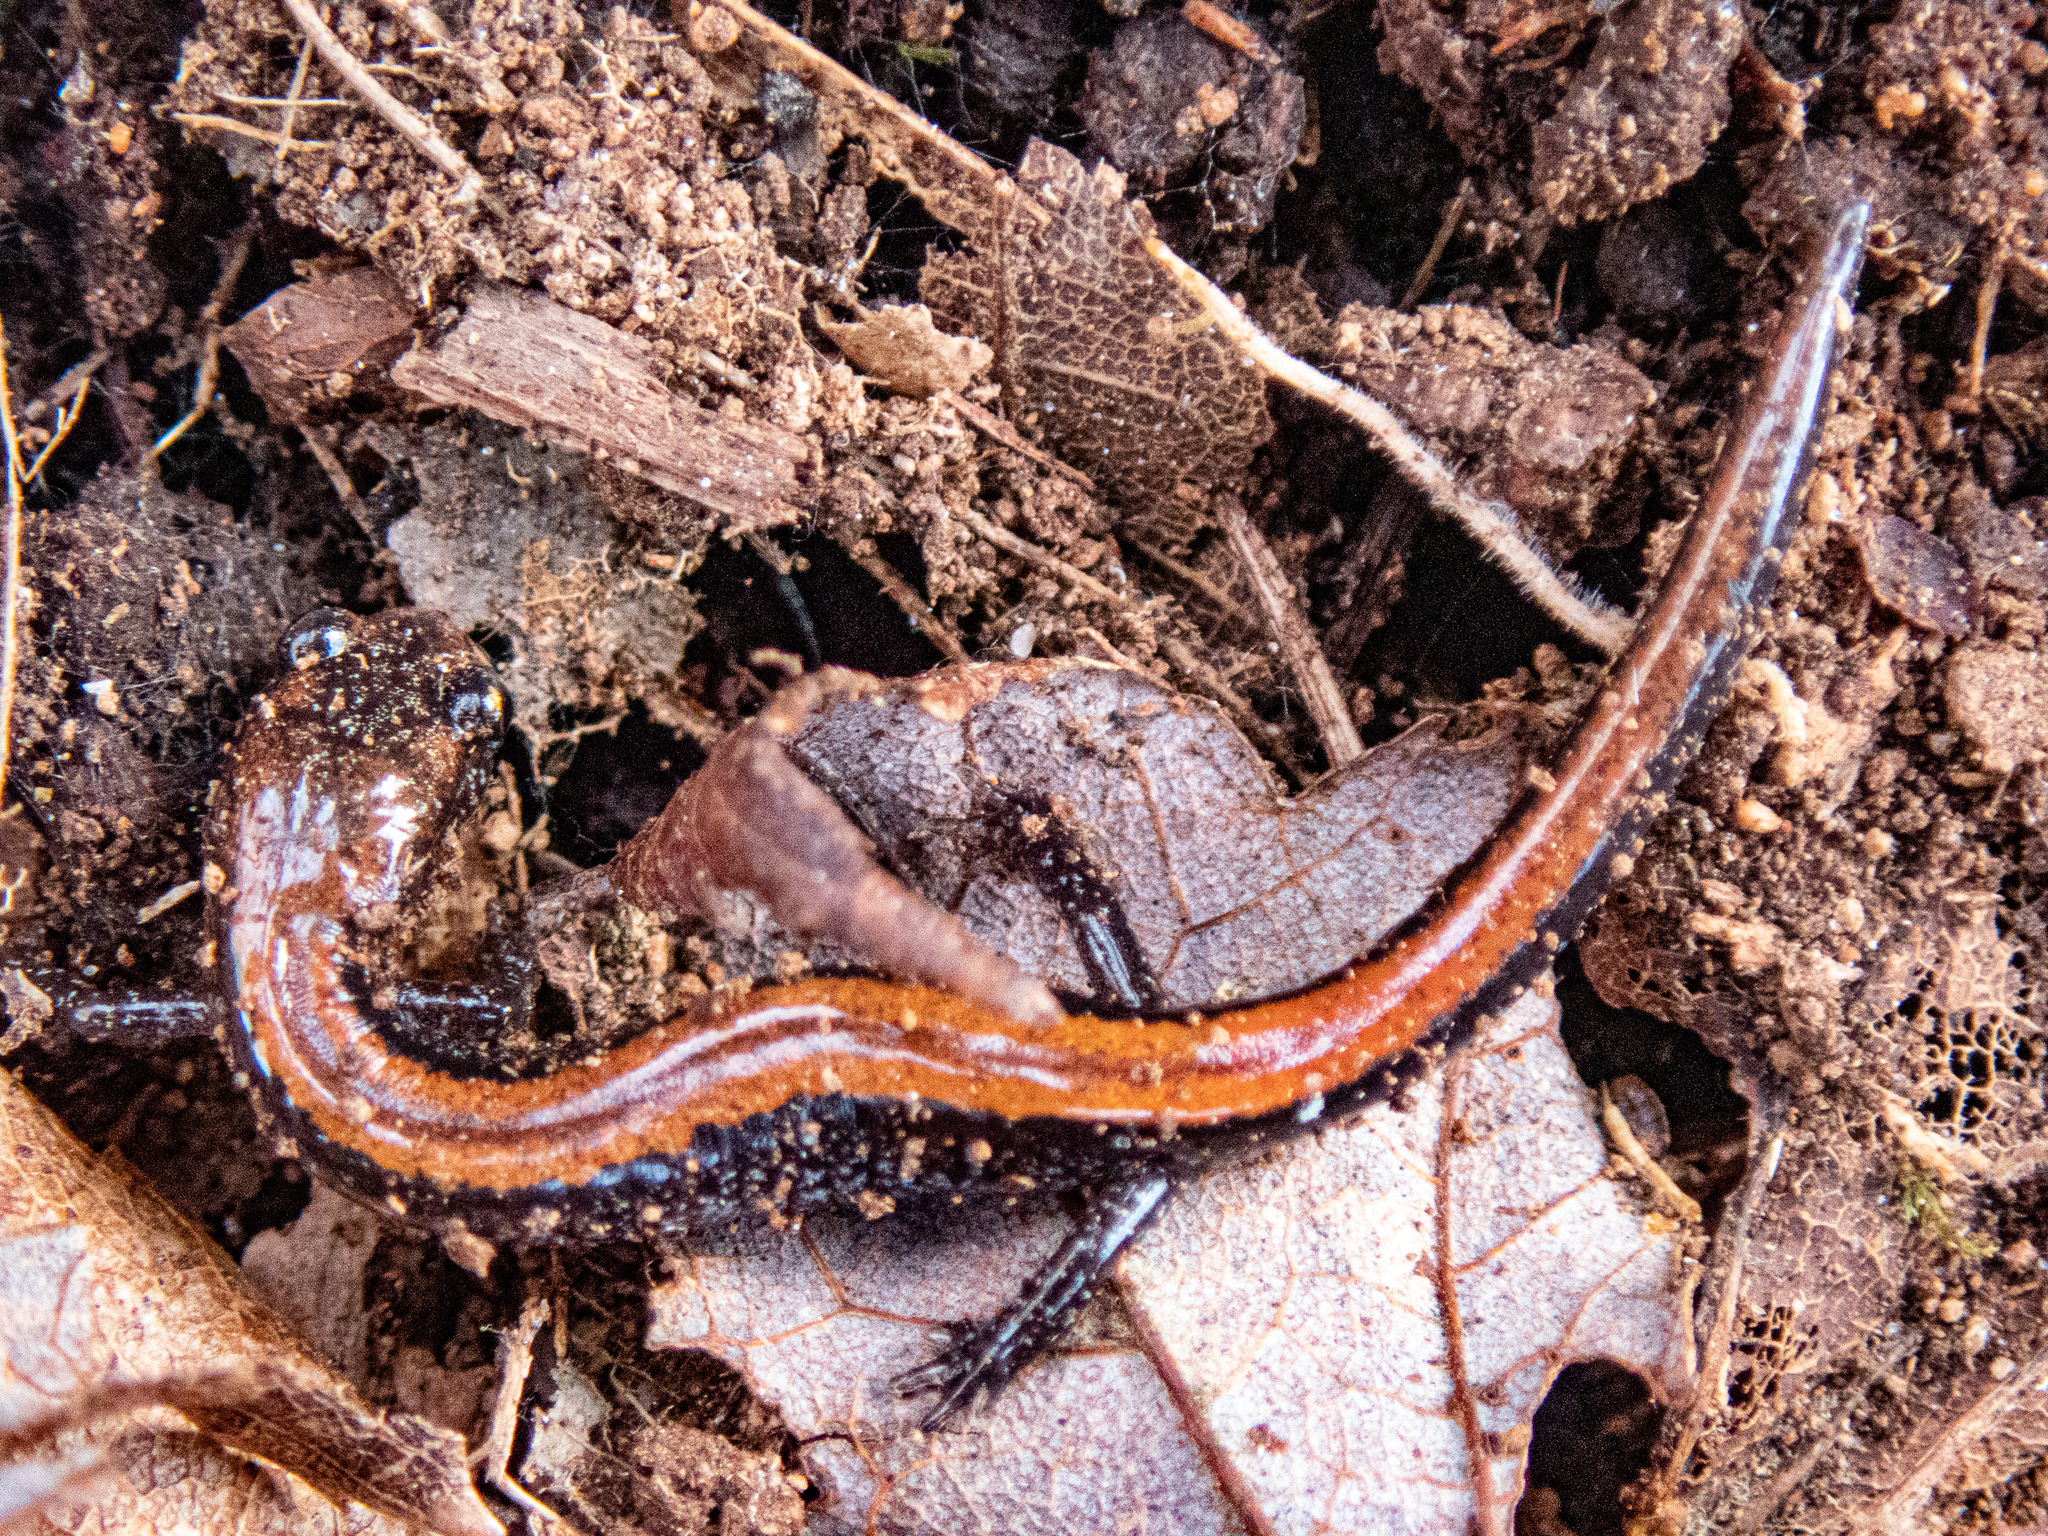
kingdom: Animalia
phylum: Chordata
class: Amphibia
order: Caudata
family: Plethodontidae
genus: Plethodon
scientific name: Plethodon cinereus
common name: Redback salamander
